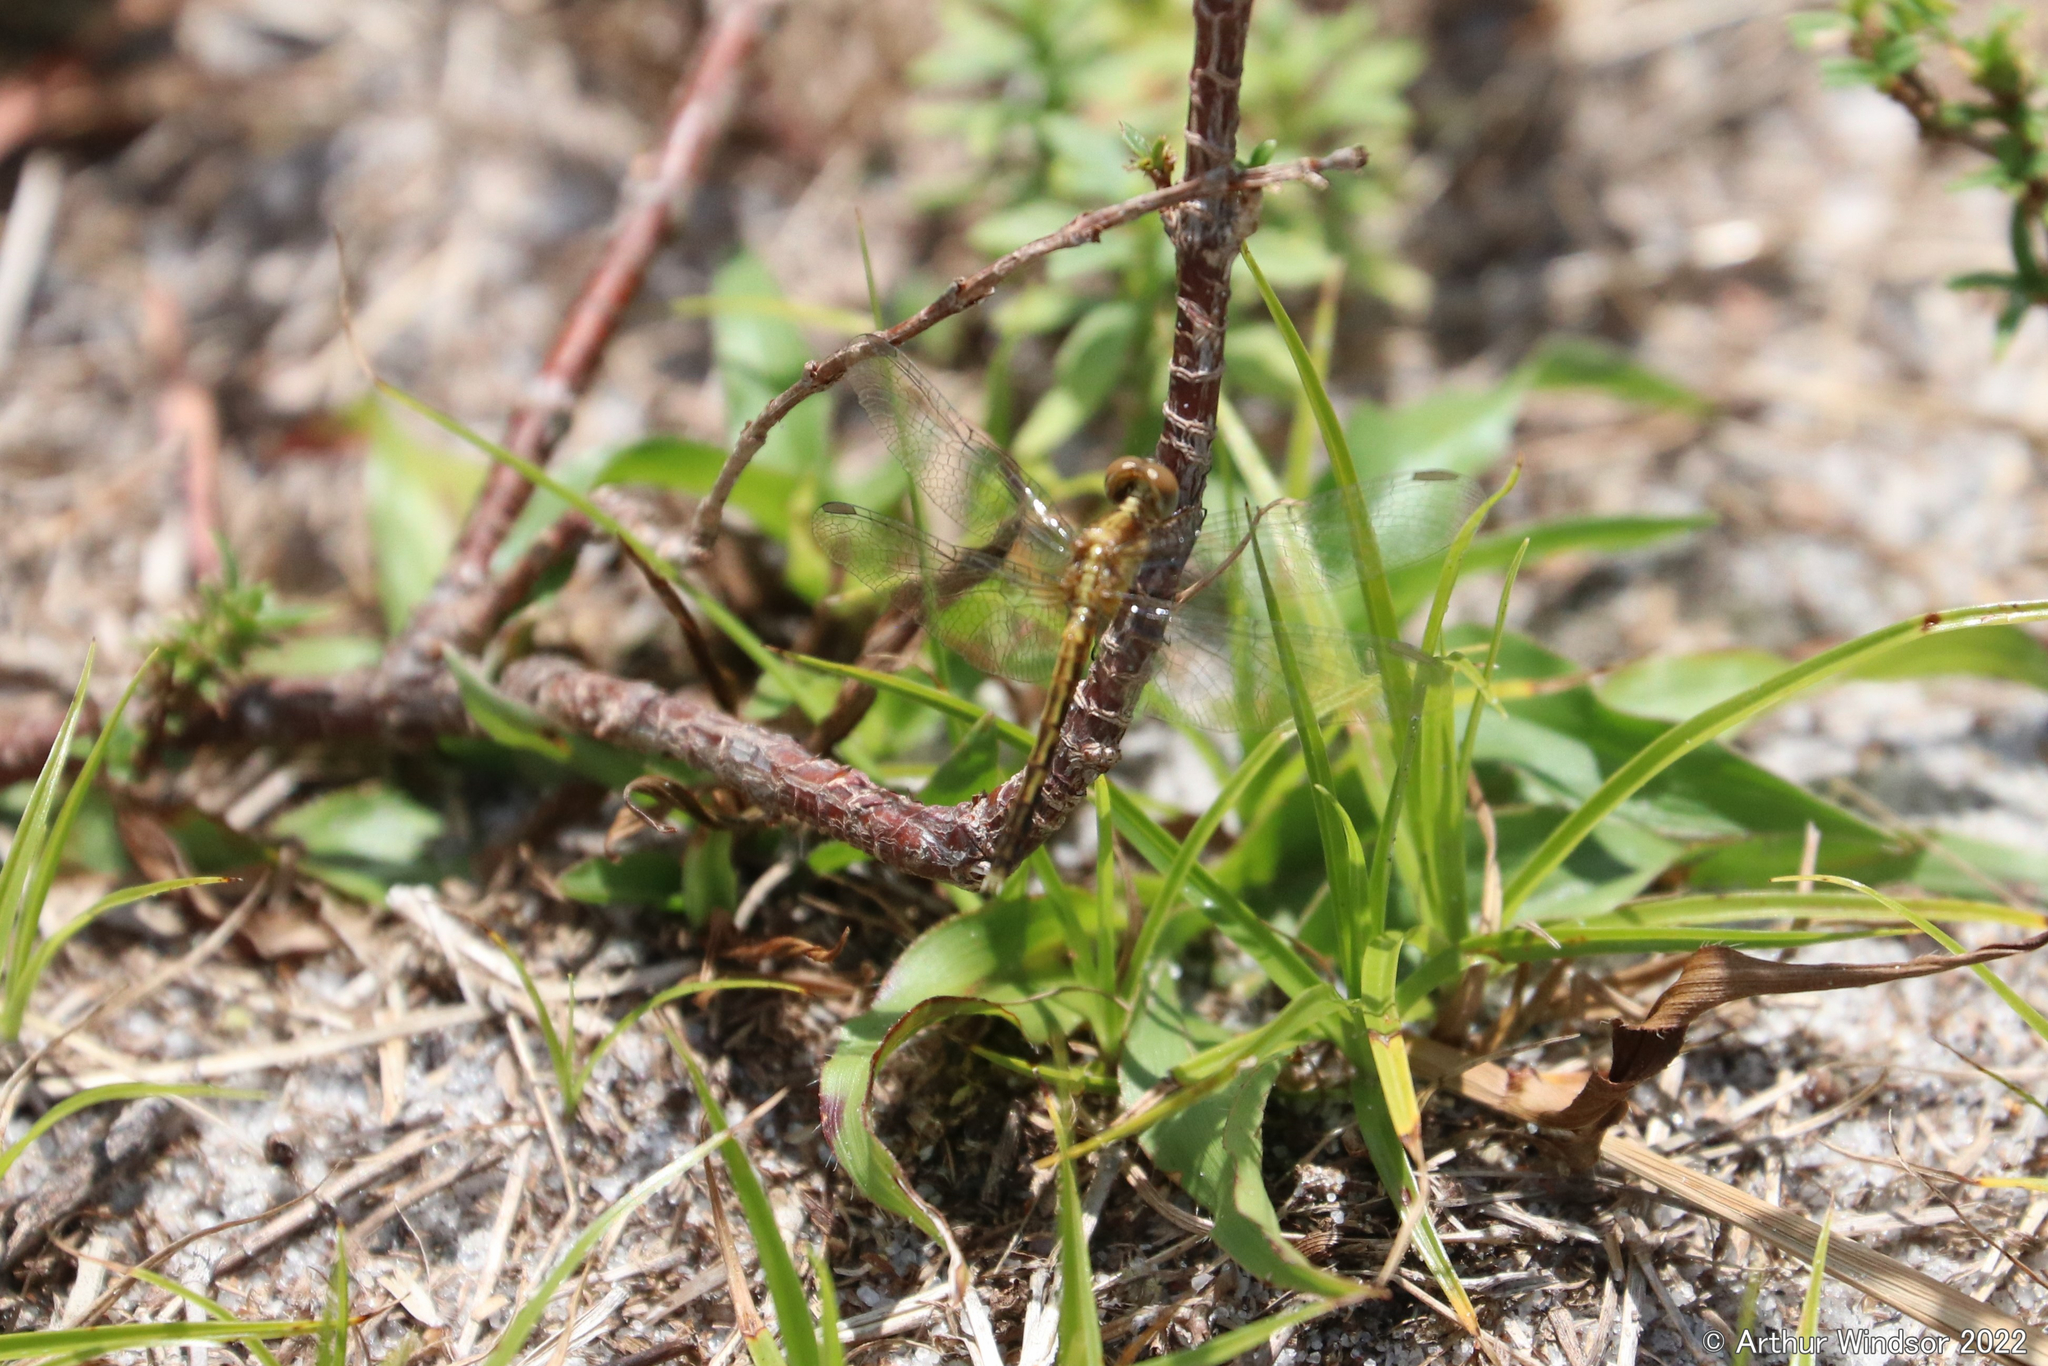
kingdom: Animalia
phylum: Arthropoda
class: Insecta
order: Odonata
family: Libellulidae
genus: Erythrodiplax
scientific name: Erythrodiplax minuscula
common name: Little blue dragonlet
